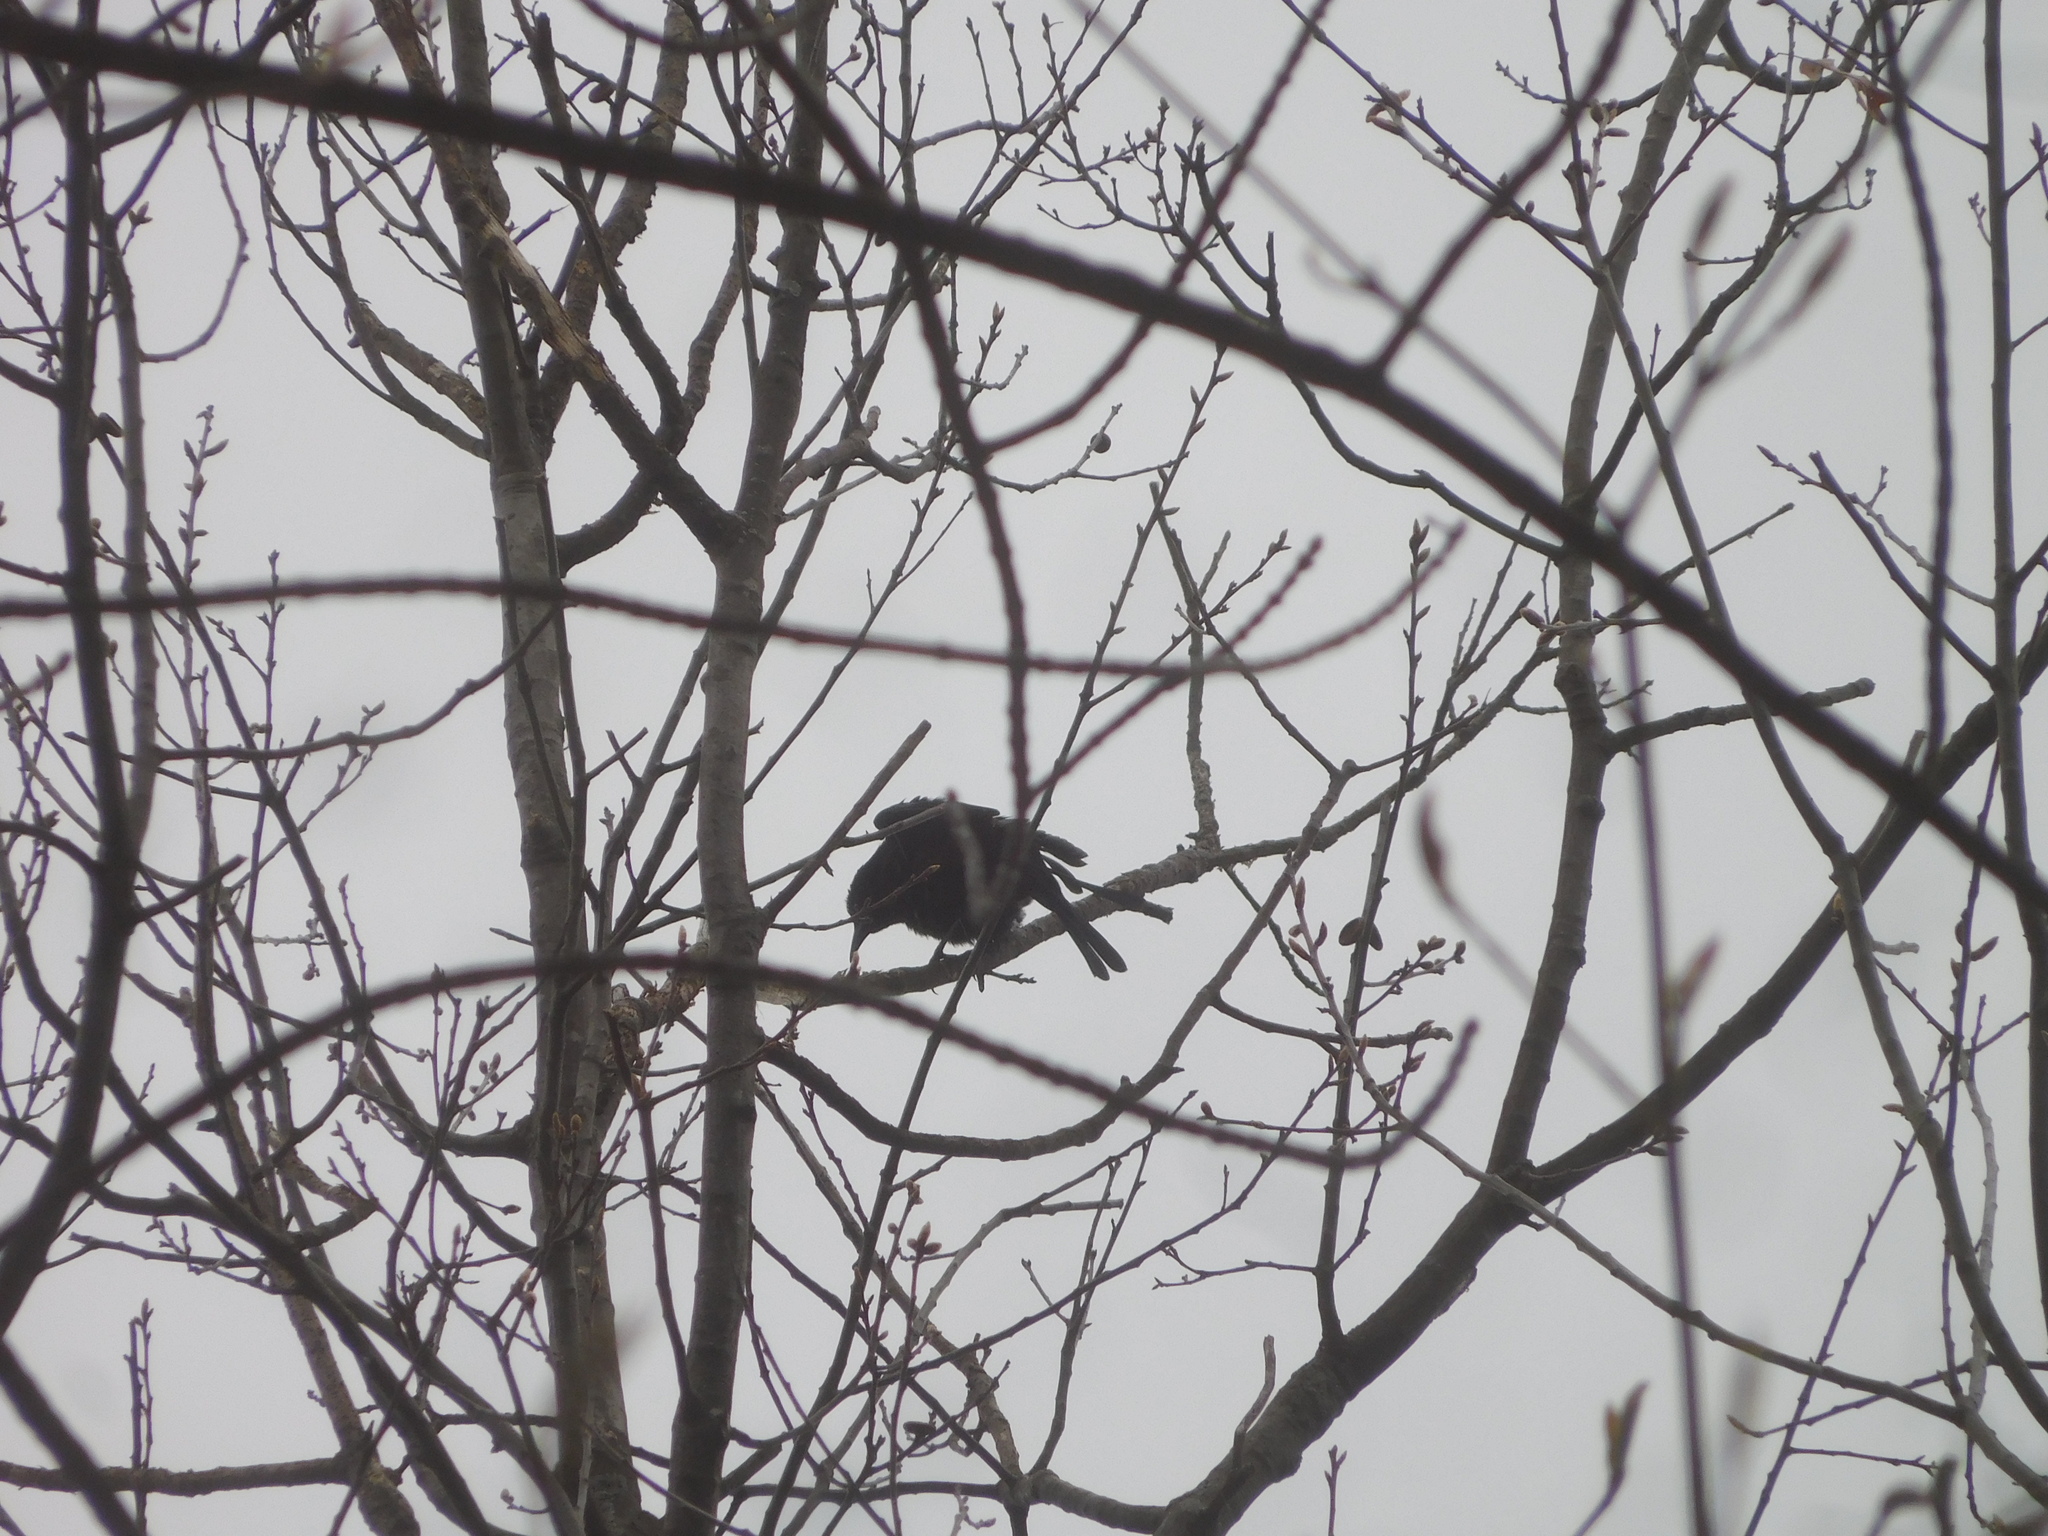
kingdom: Animalia
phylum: Chordata
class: Aves
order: Passeriformes
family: Icteridae
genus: Quiscalus
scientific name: Quiscalus quiscula
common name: Common grackle
